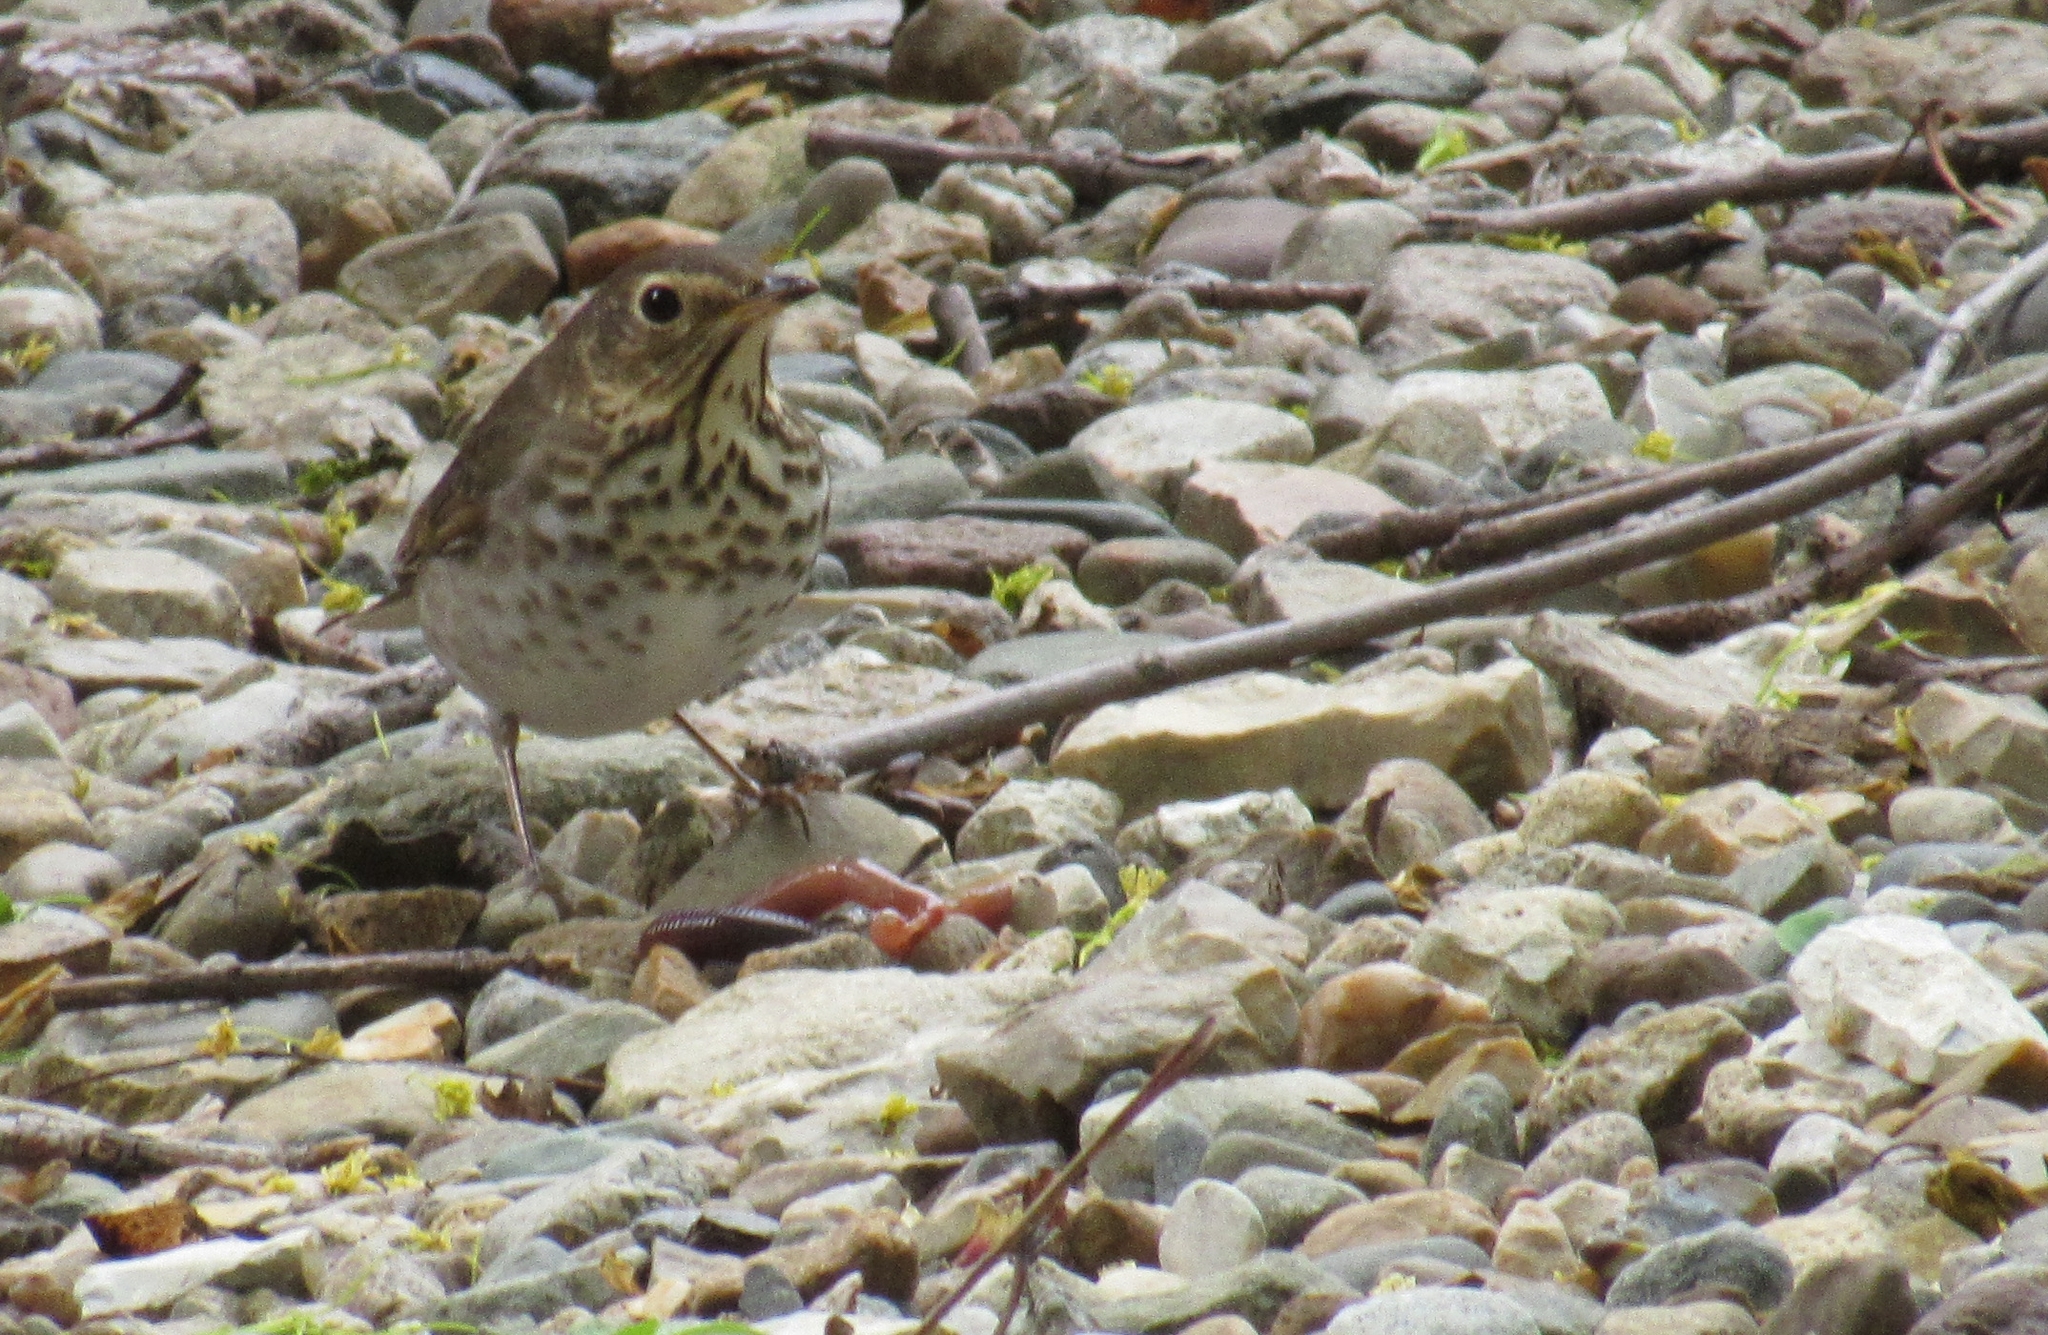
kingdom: Animalia
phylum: Chordata
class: Aves
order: Passeriformes
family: Turdidae
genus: Catharus
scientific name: Catharus ustulatus
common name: Swainson's thrush
